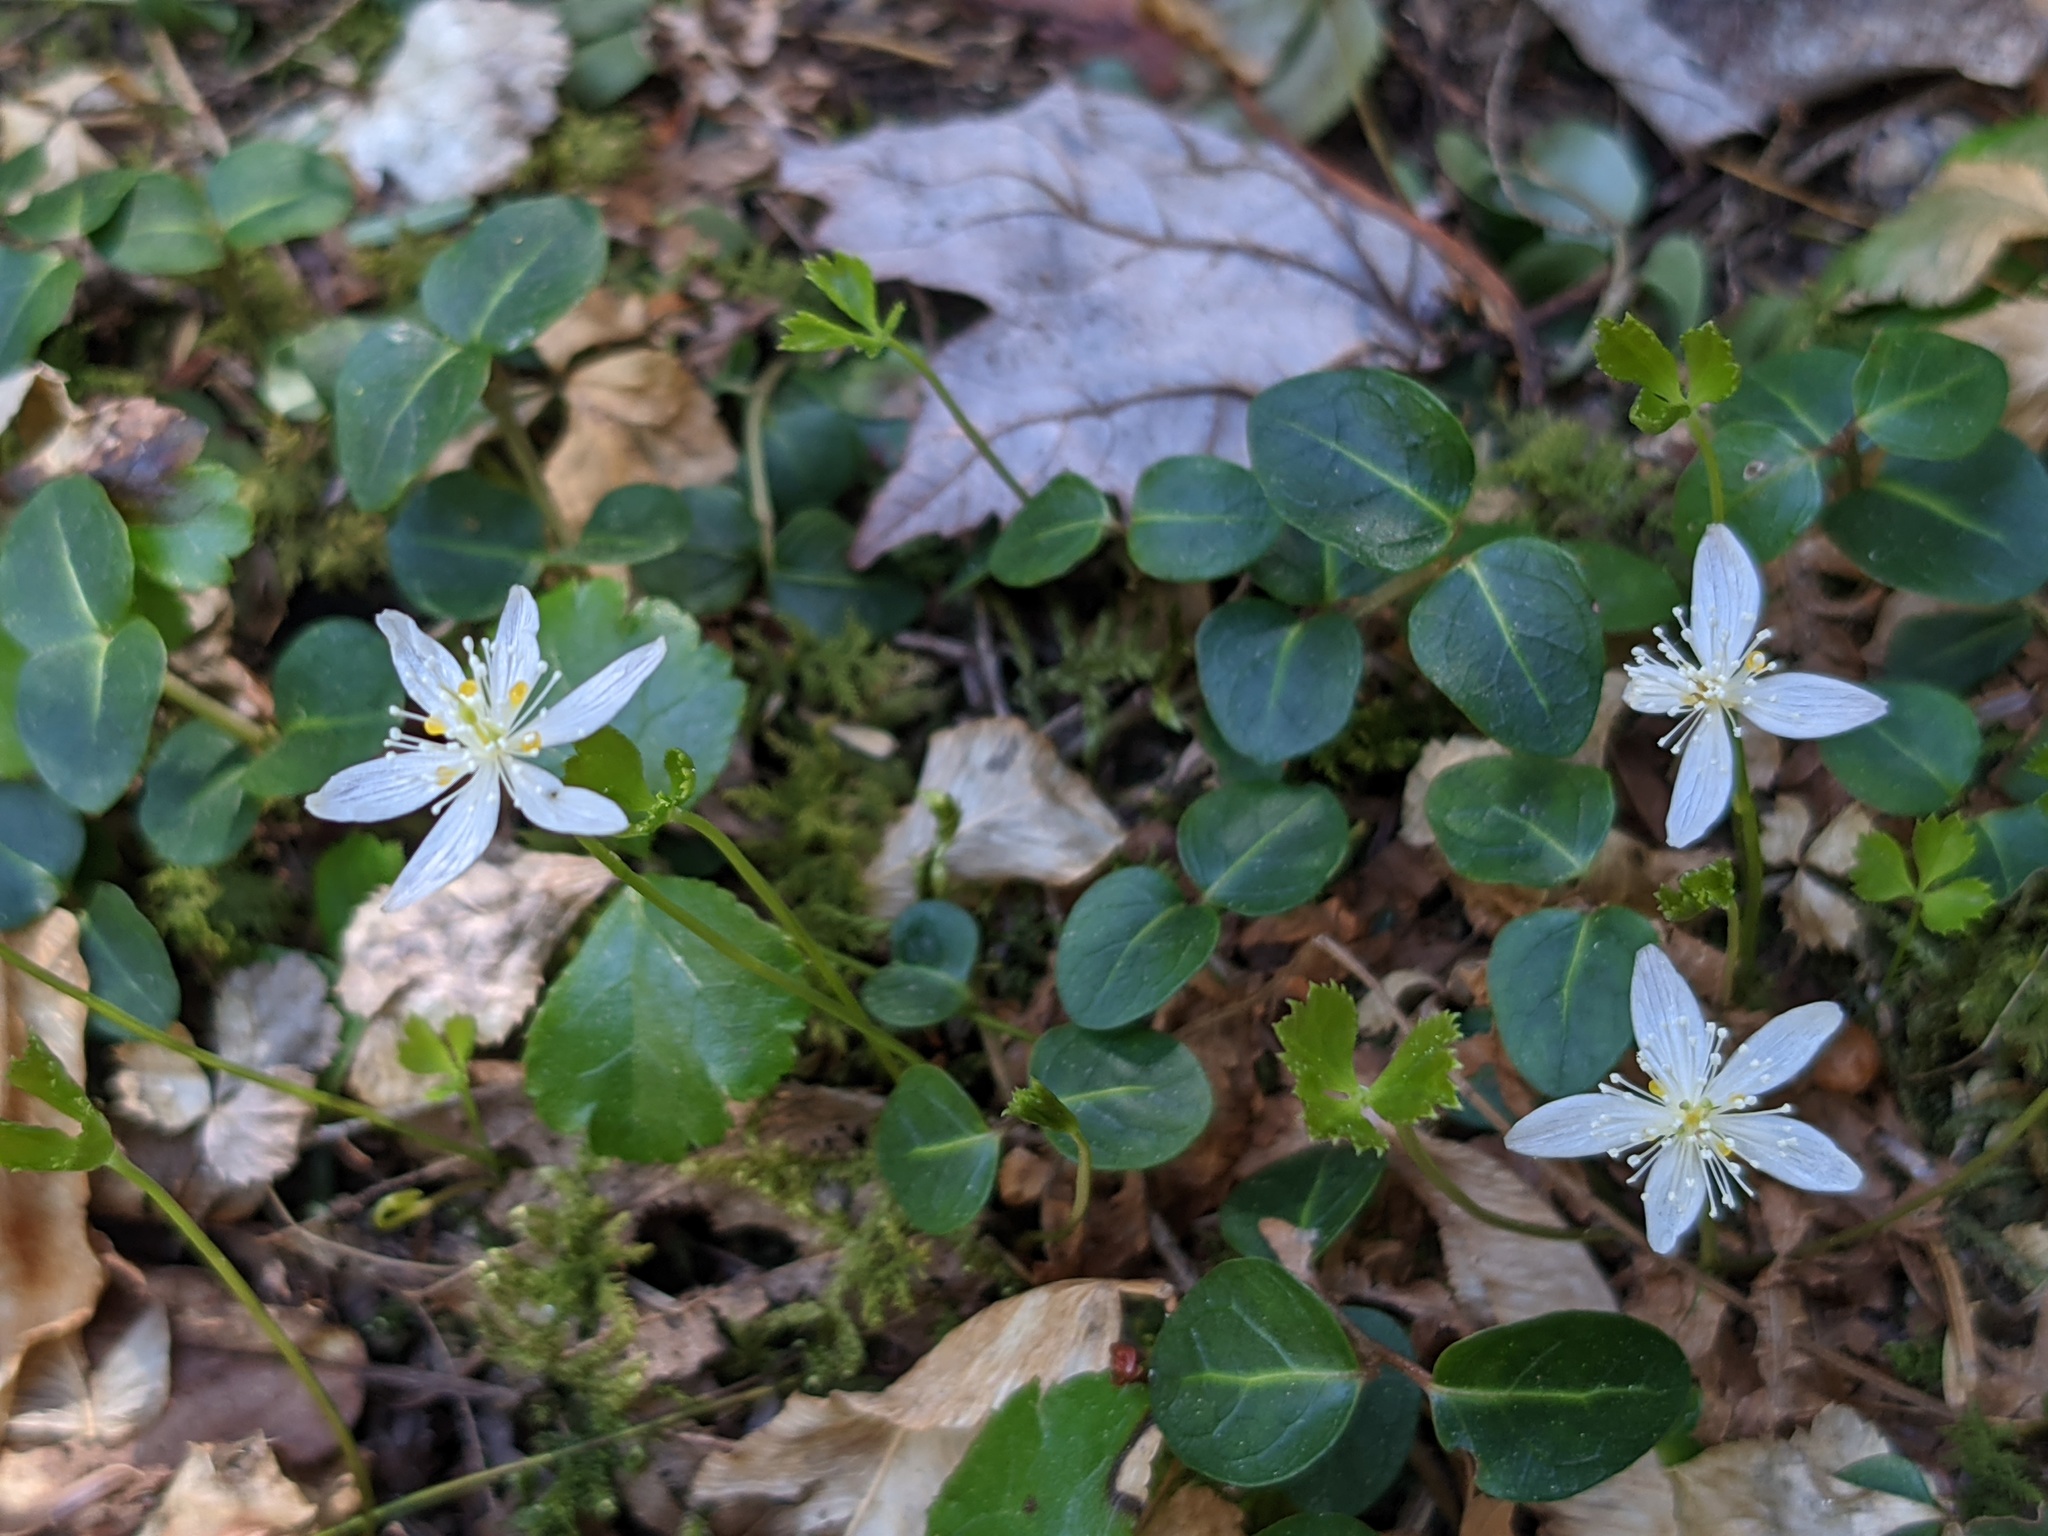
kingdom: Plantae
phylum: Tracheophyta
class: Magnoliopsida
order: Ranunculales
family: Ranunculaceae
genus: Coptis
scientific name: Coptis trifolia
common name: Canker-root
